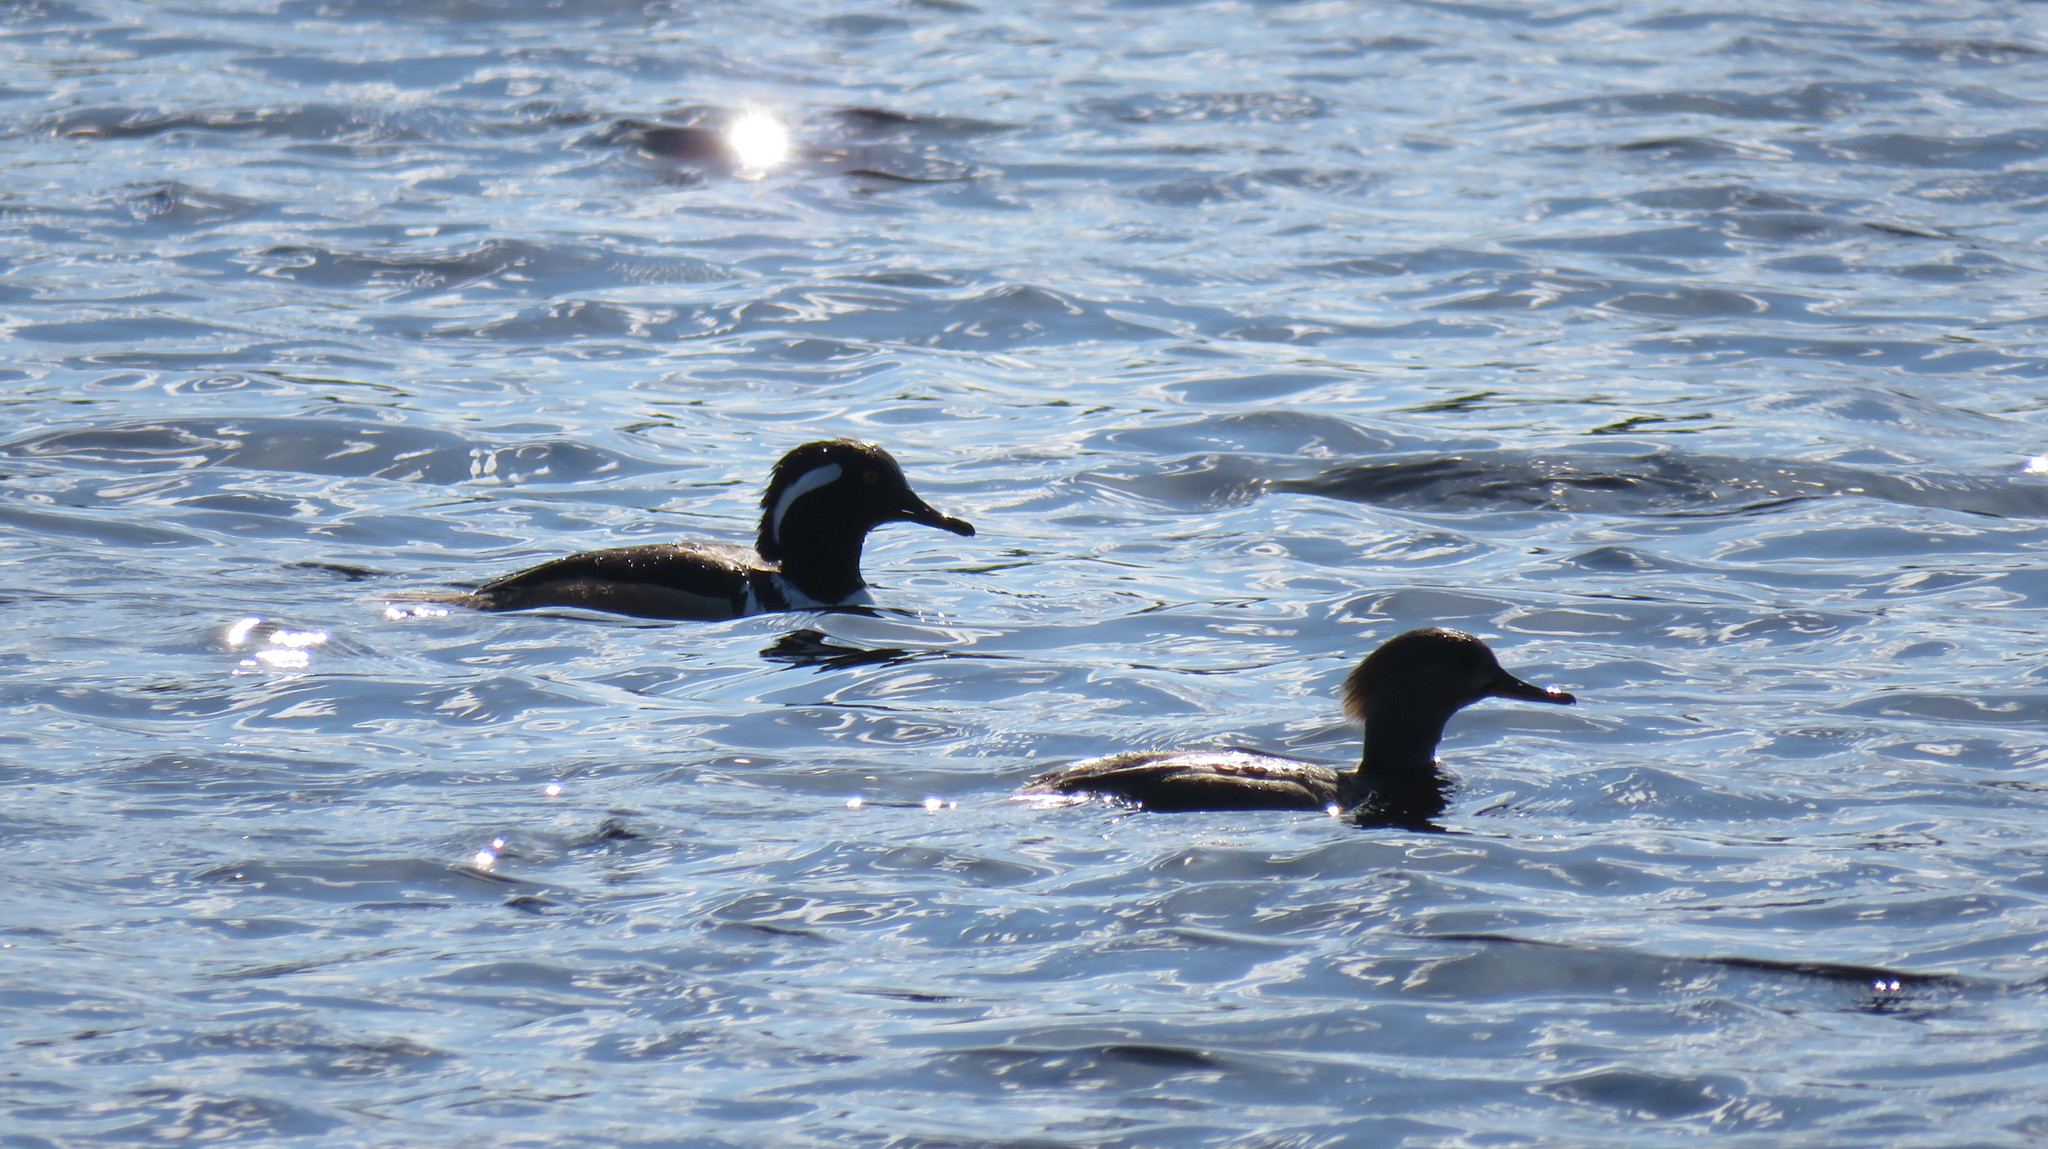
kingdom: Animalia
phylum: Chordata
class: Aves
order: Anseriformes
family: Anatidae
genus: Lophodytes
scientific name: Lophodytes cucullatus
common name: Hooded merganser
